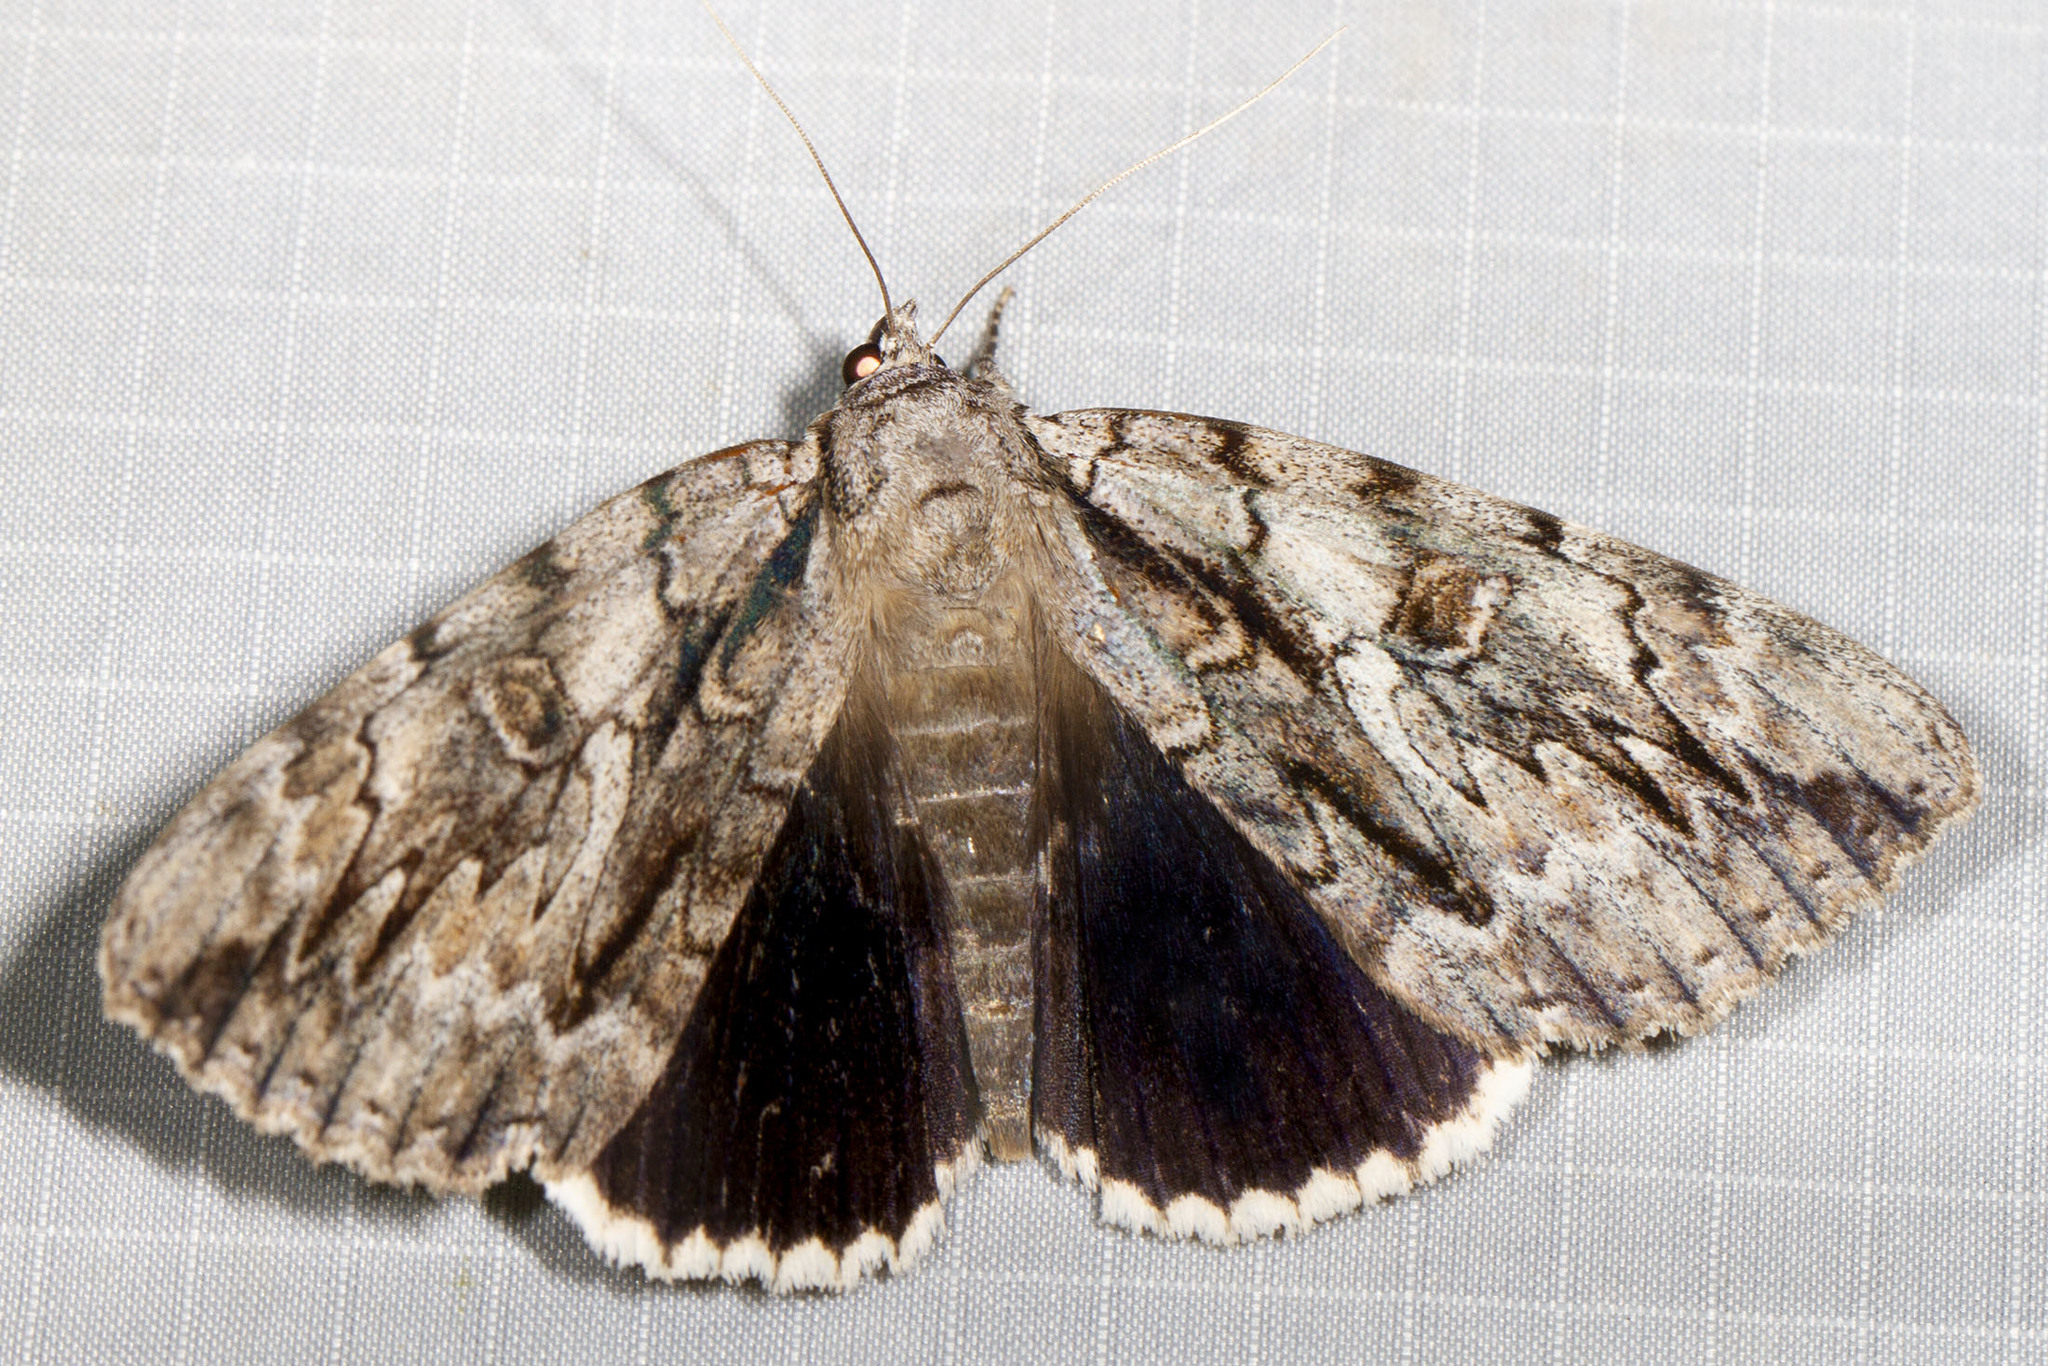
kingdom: Animalia
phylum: Arthropoda
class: Insecta
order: Lepidoptera
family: Erebidae
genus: Catocala
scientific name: Catocala retecta
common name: Yellow-gray underwing
